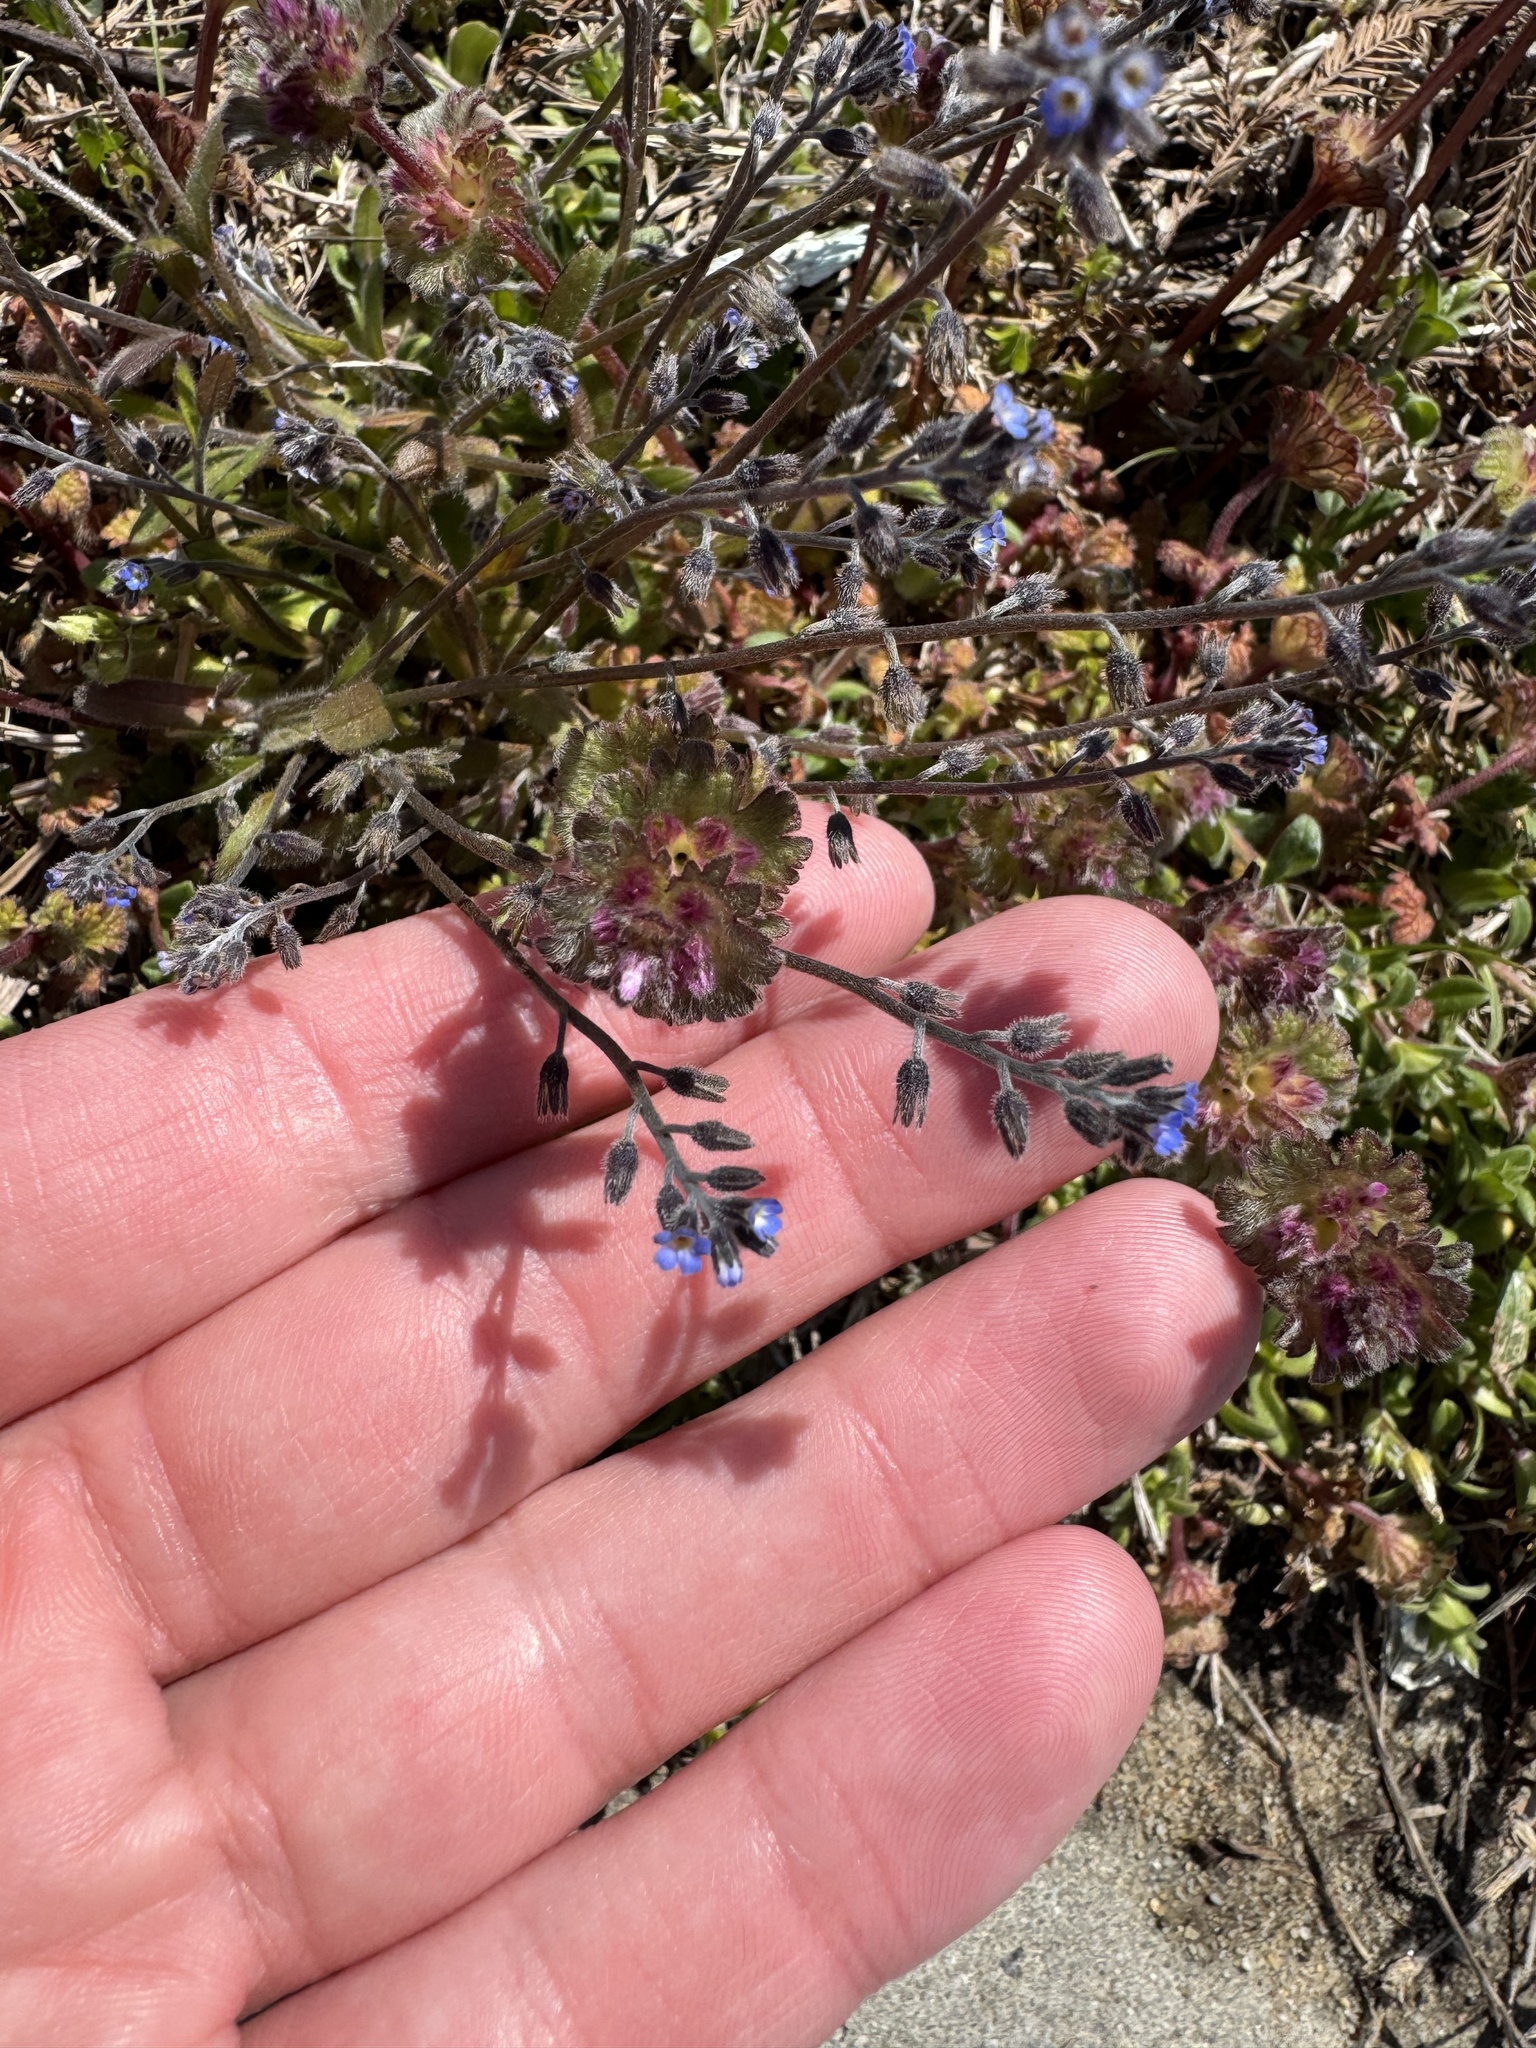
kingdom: Plantae
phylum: Tracheophyta
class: Magnoliopsida
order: Boraginales
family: Boraginaceae
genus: Myosotis
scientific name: Myosotis ramosissima
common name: Early forget-me-not
